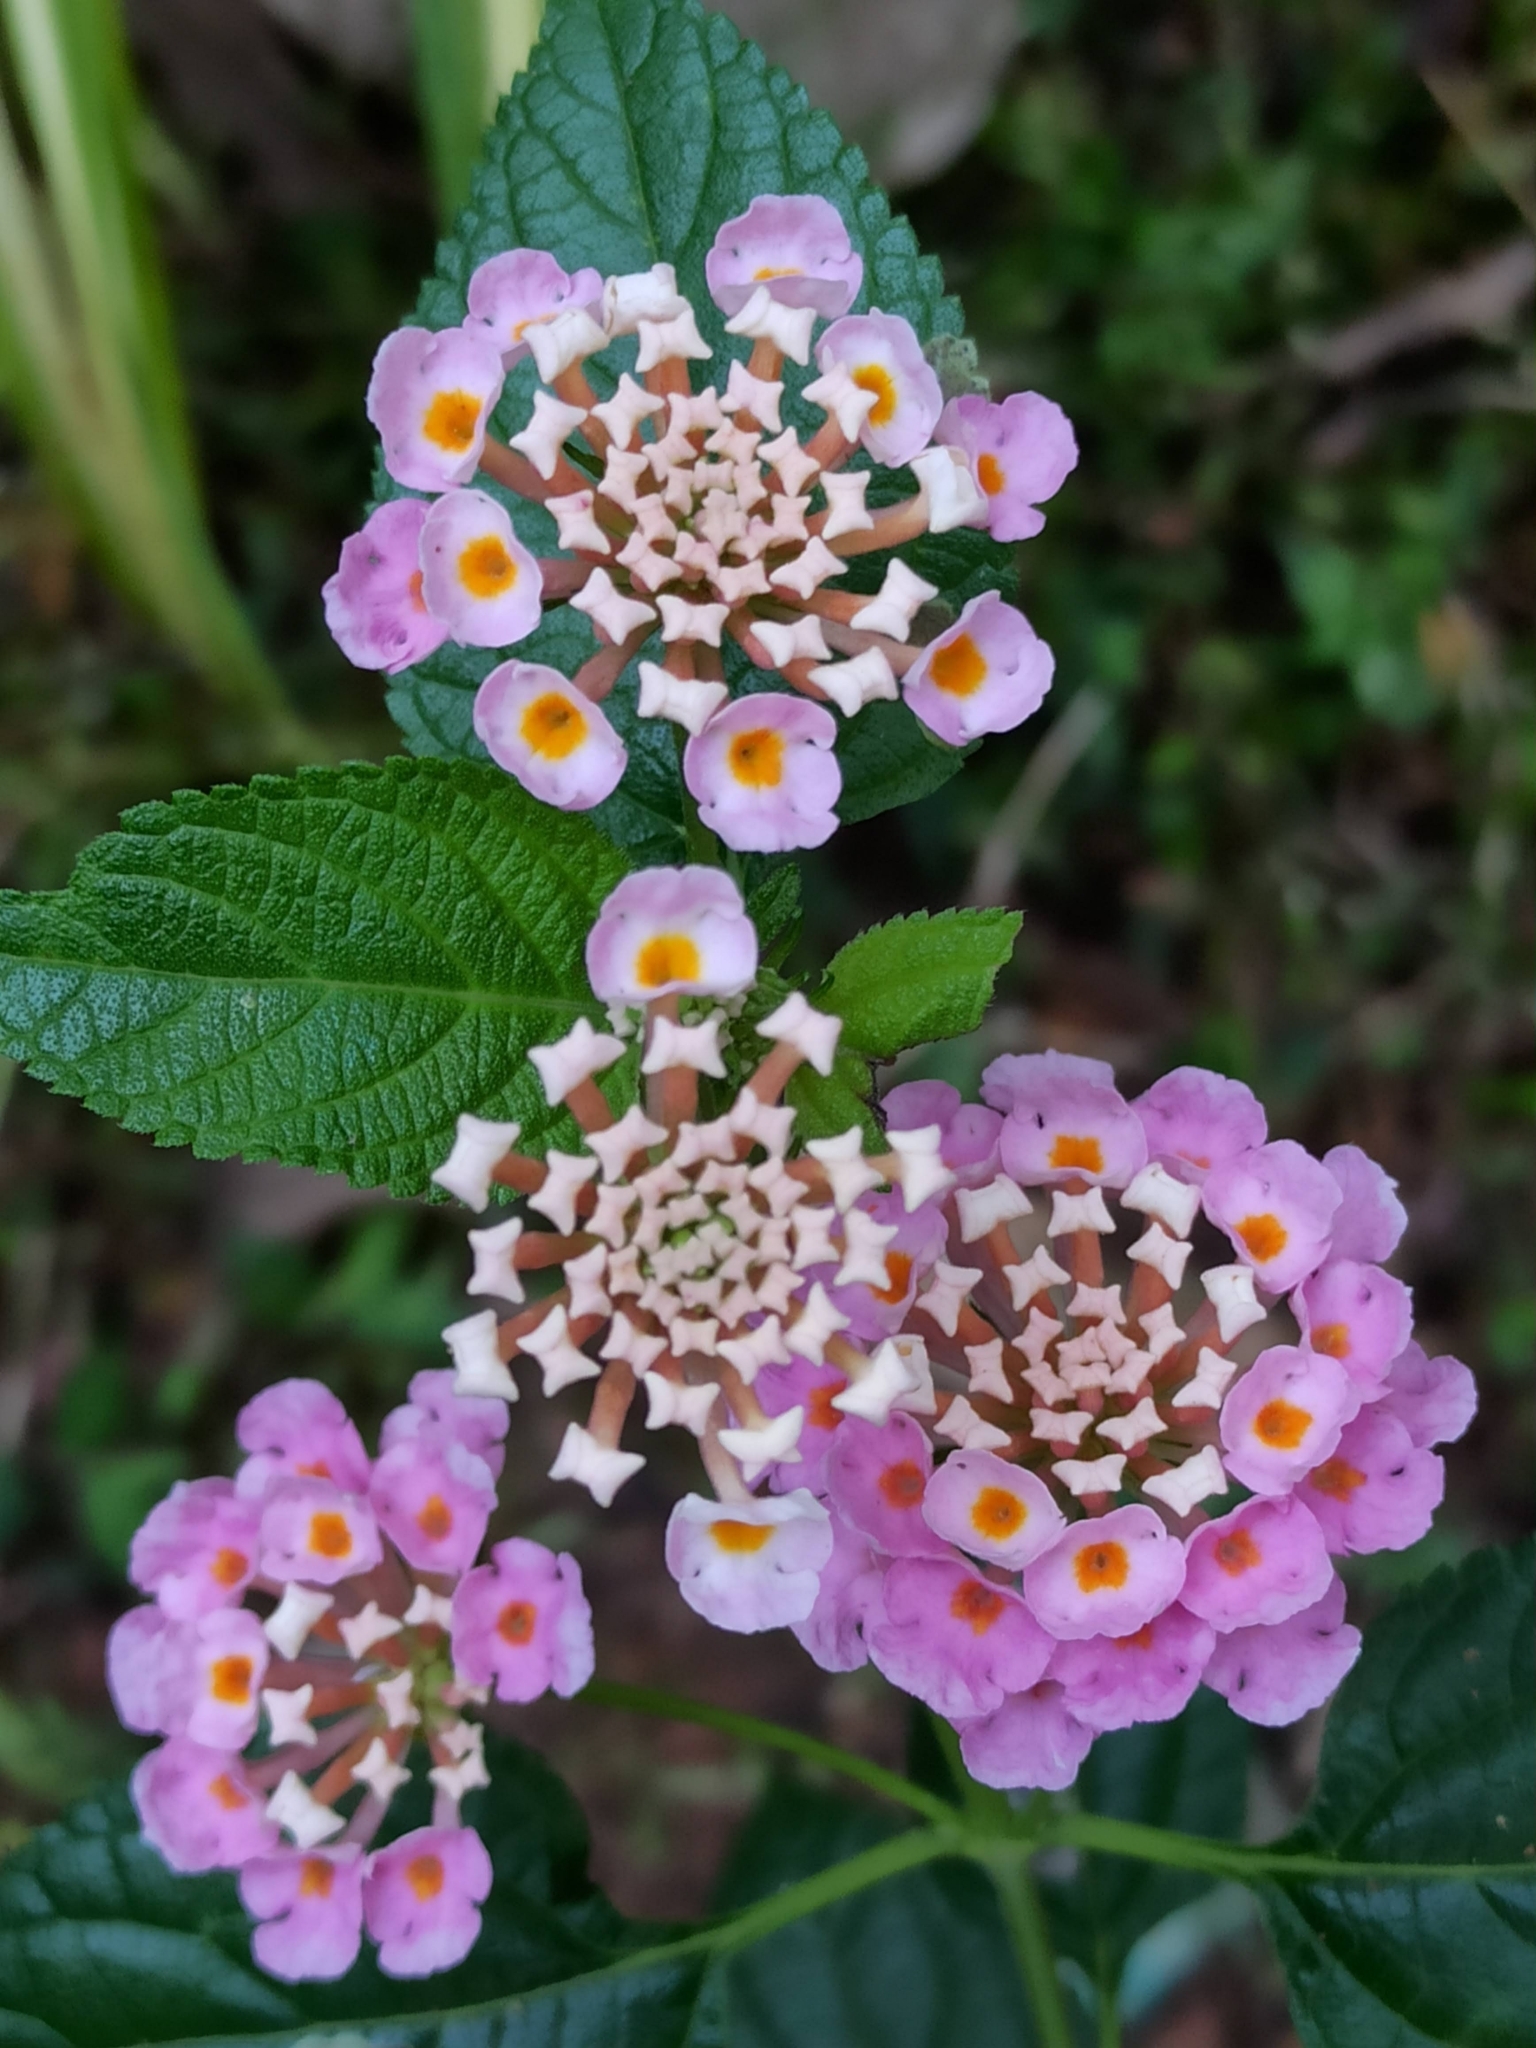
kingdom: Plantae
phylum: Tracheophyta
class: Magnoliopsida
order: Lamiales
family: Verbenaceae
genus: Lantana
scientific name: Lantana camara
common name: Lantana
